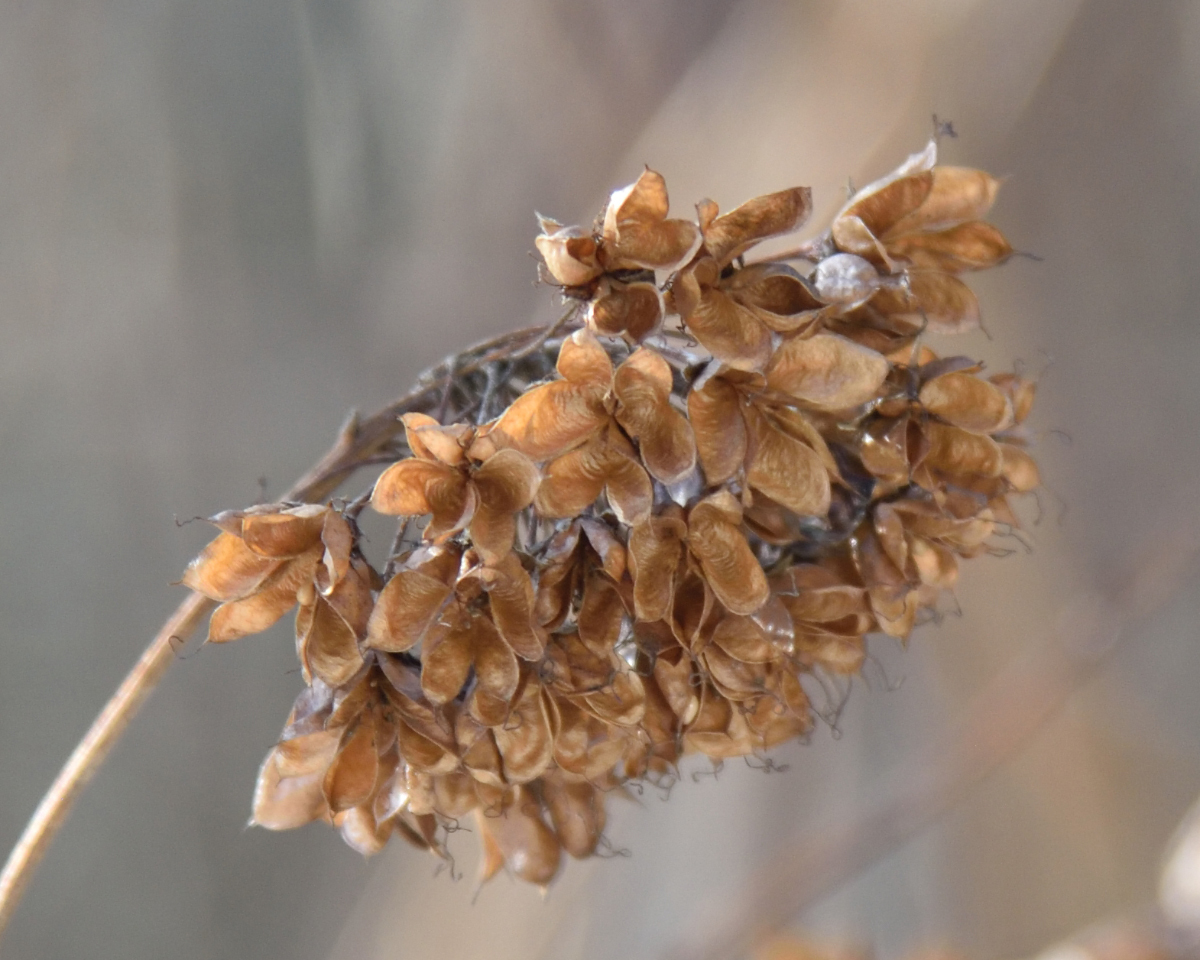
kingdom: Plantae
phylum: Tracheophyta
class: Magnoliopsida
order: Rosales
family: Rosaceae
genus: Physocarpus
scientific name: Physocarpus opulifolius
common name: Ninebark
